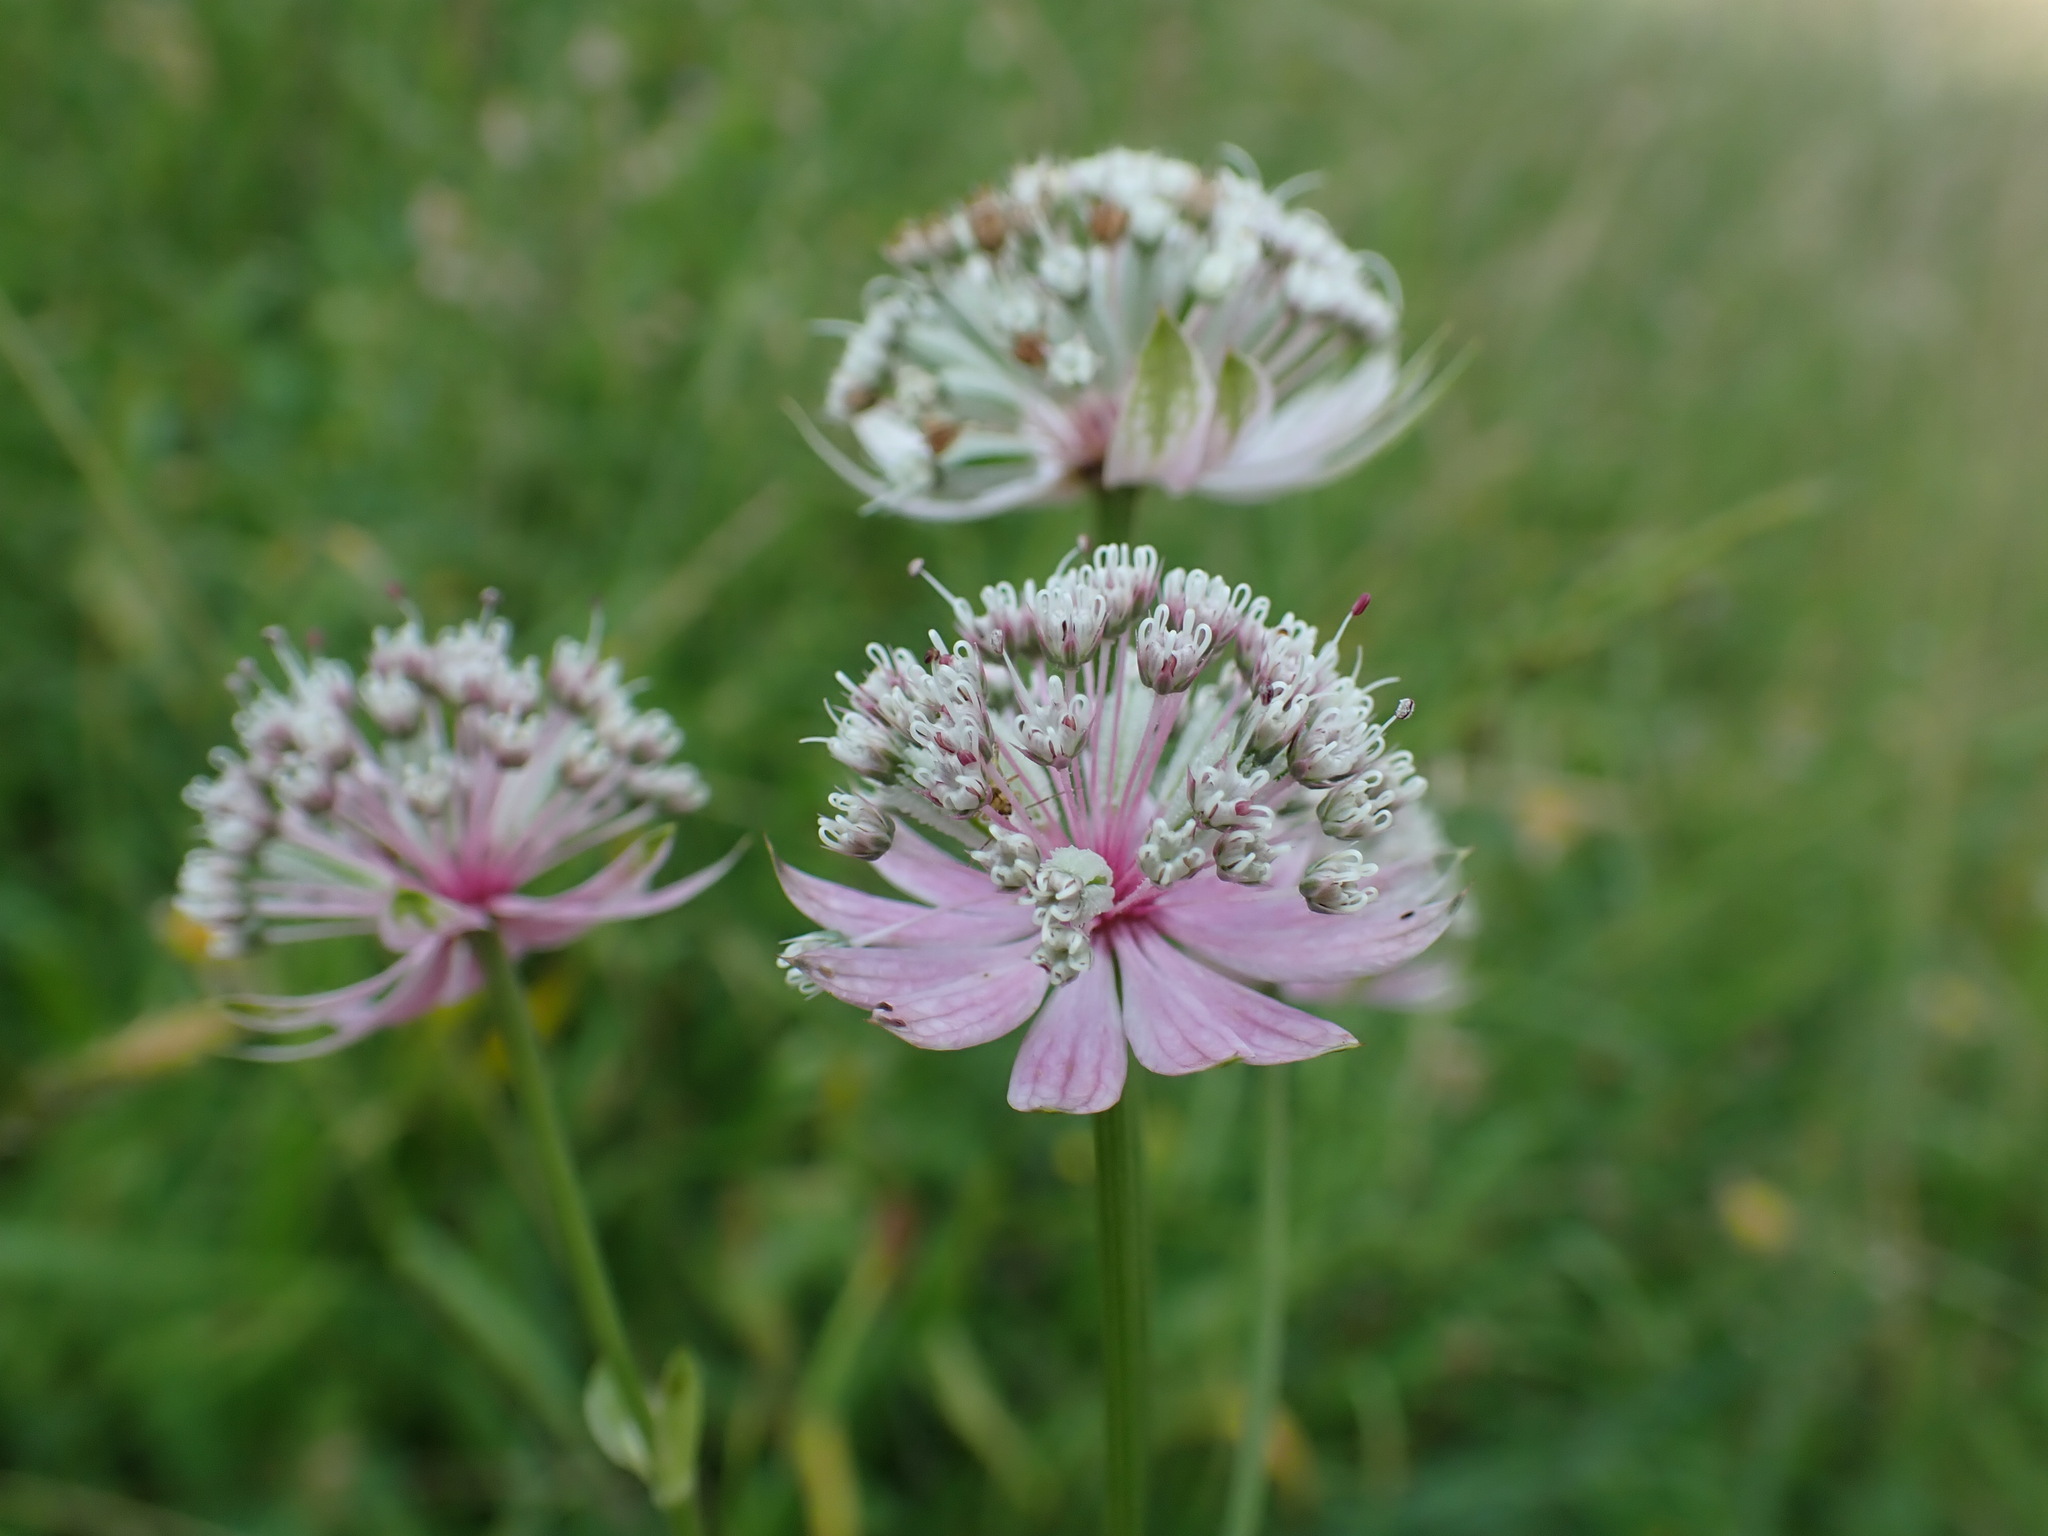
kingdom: Plantae
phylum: Tracheophyta
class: Magnoliopsida
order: Apiales
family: Apiaceae
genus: Astrantia
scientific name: Astrantia major
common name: Greater masterwort
